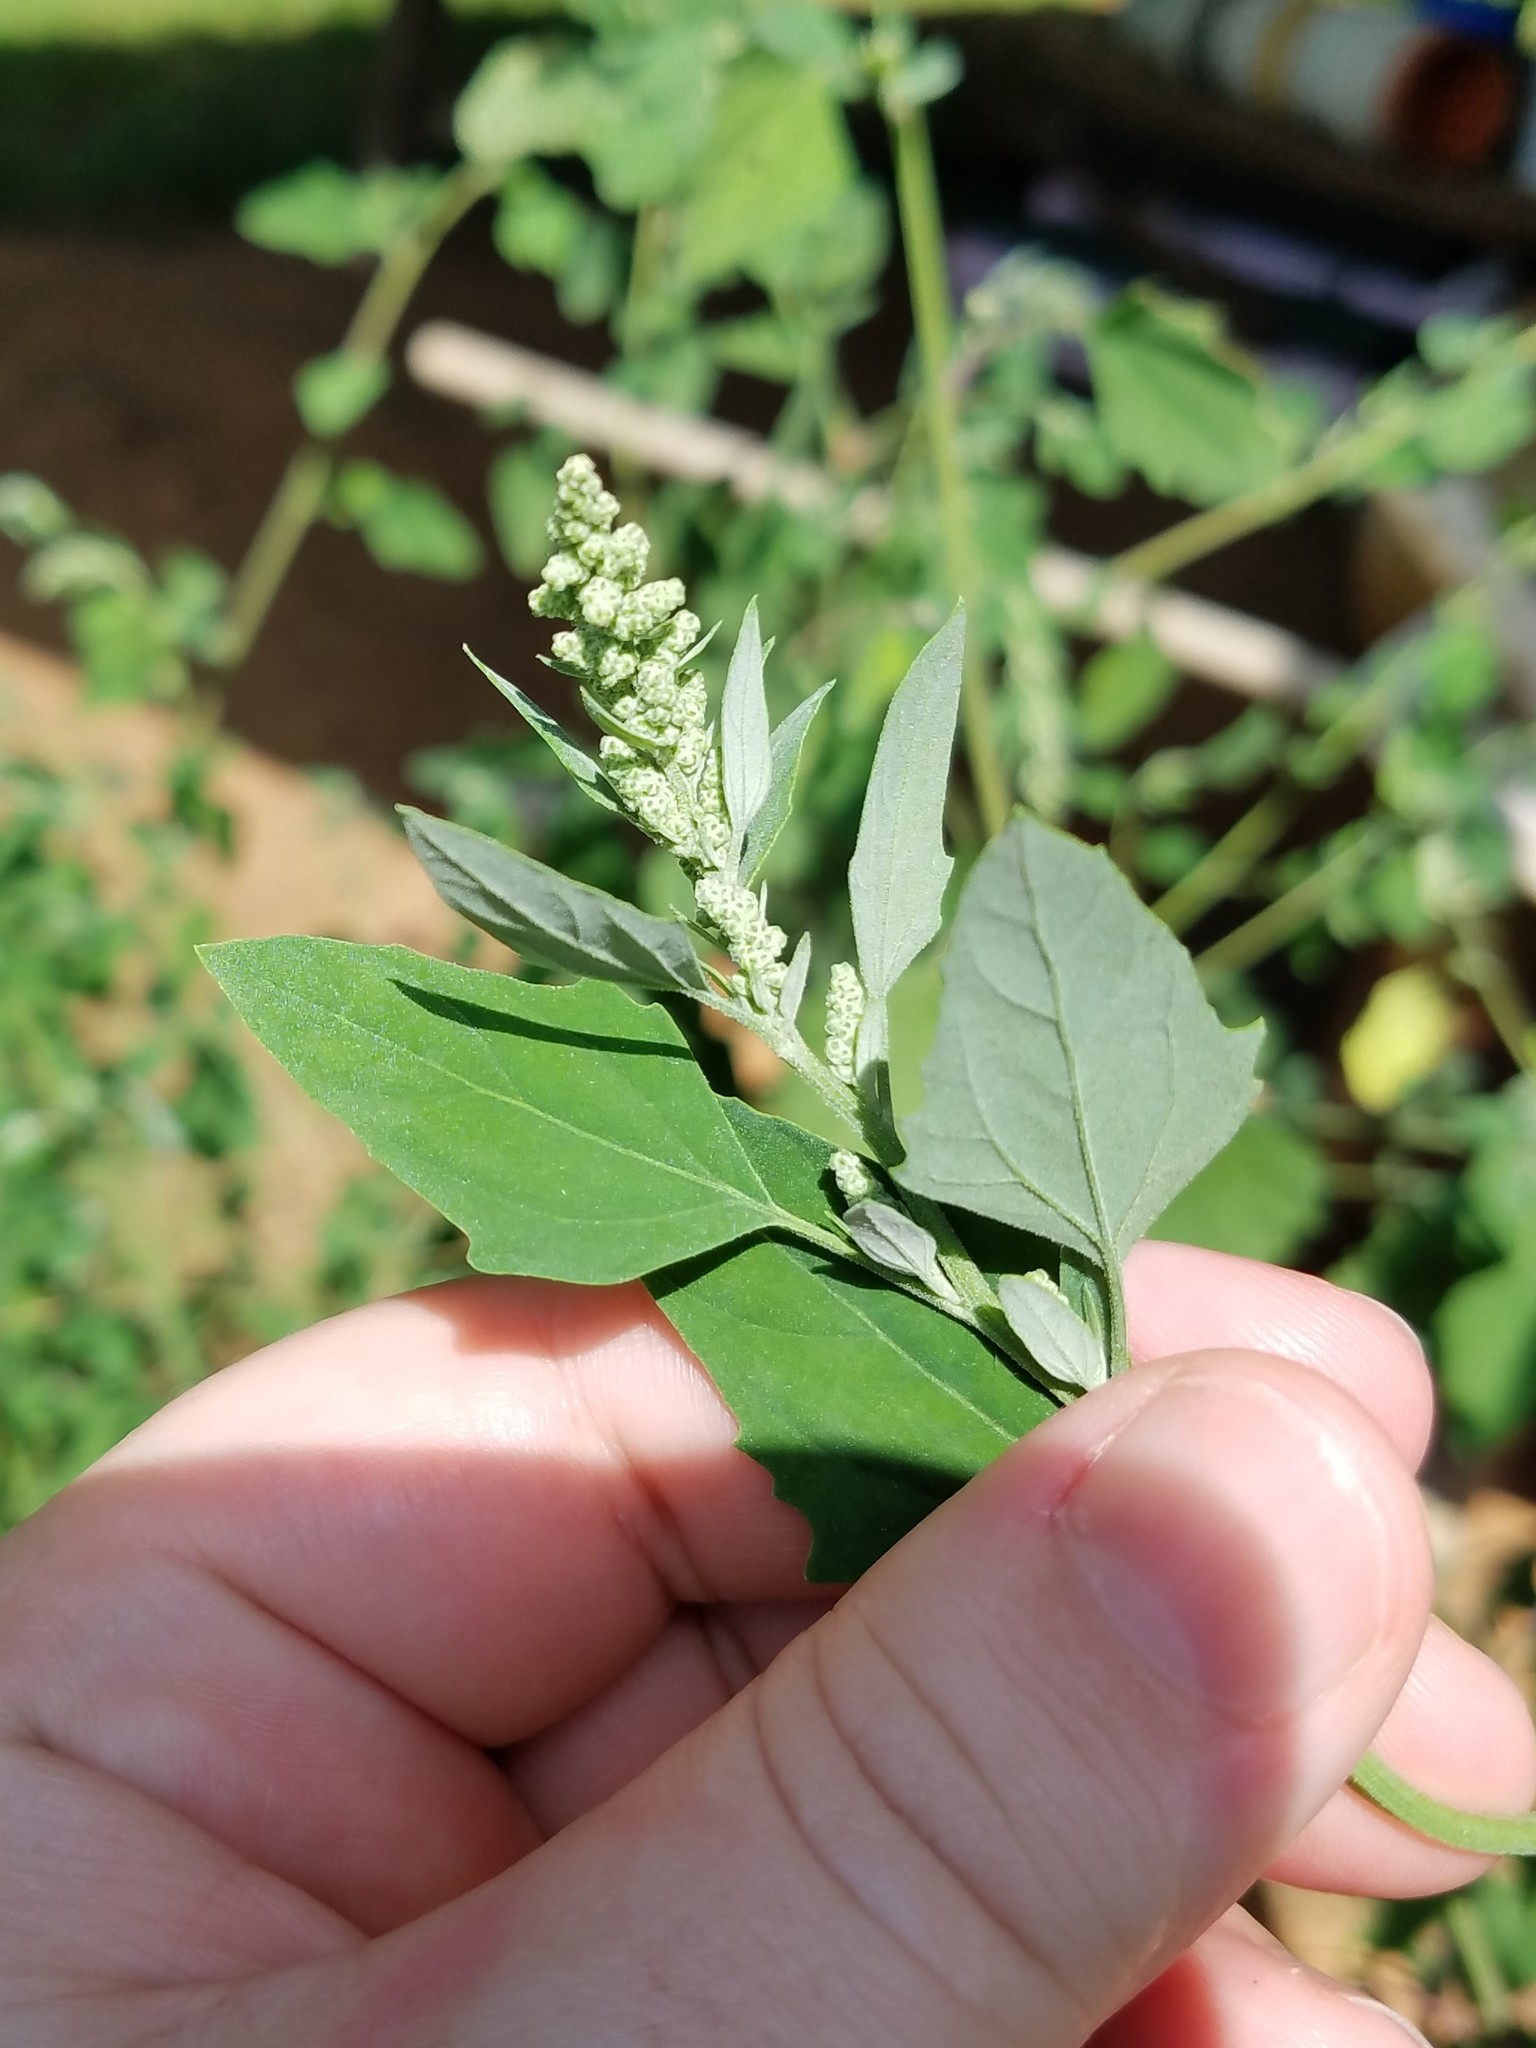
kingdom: Plantae
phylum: Tracheophyta
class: Magnoliopsida
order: Caryophyllales
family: Amaranthaceae
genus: Chenopodium
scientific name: Chenopodium album
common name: Fat-hen
